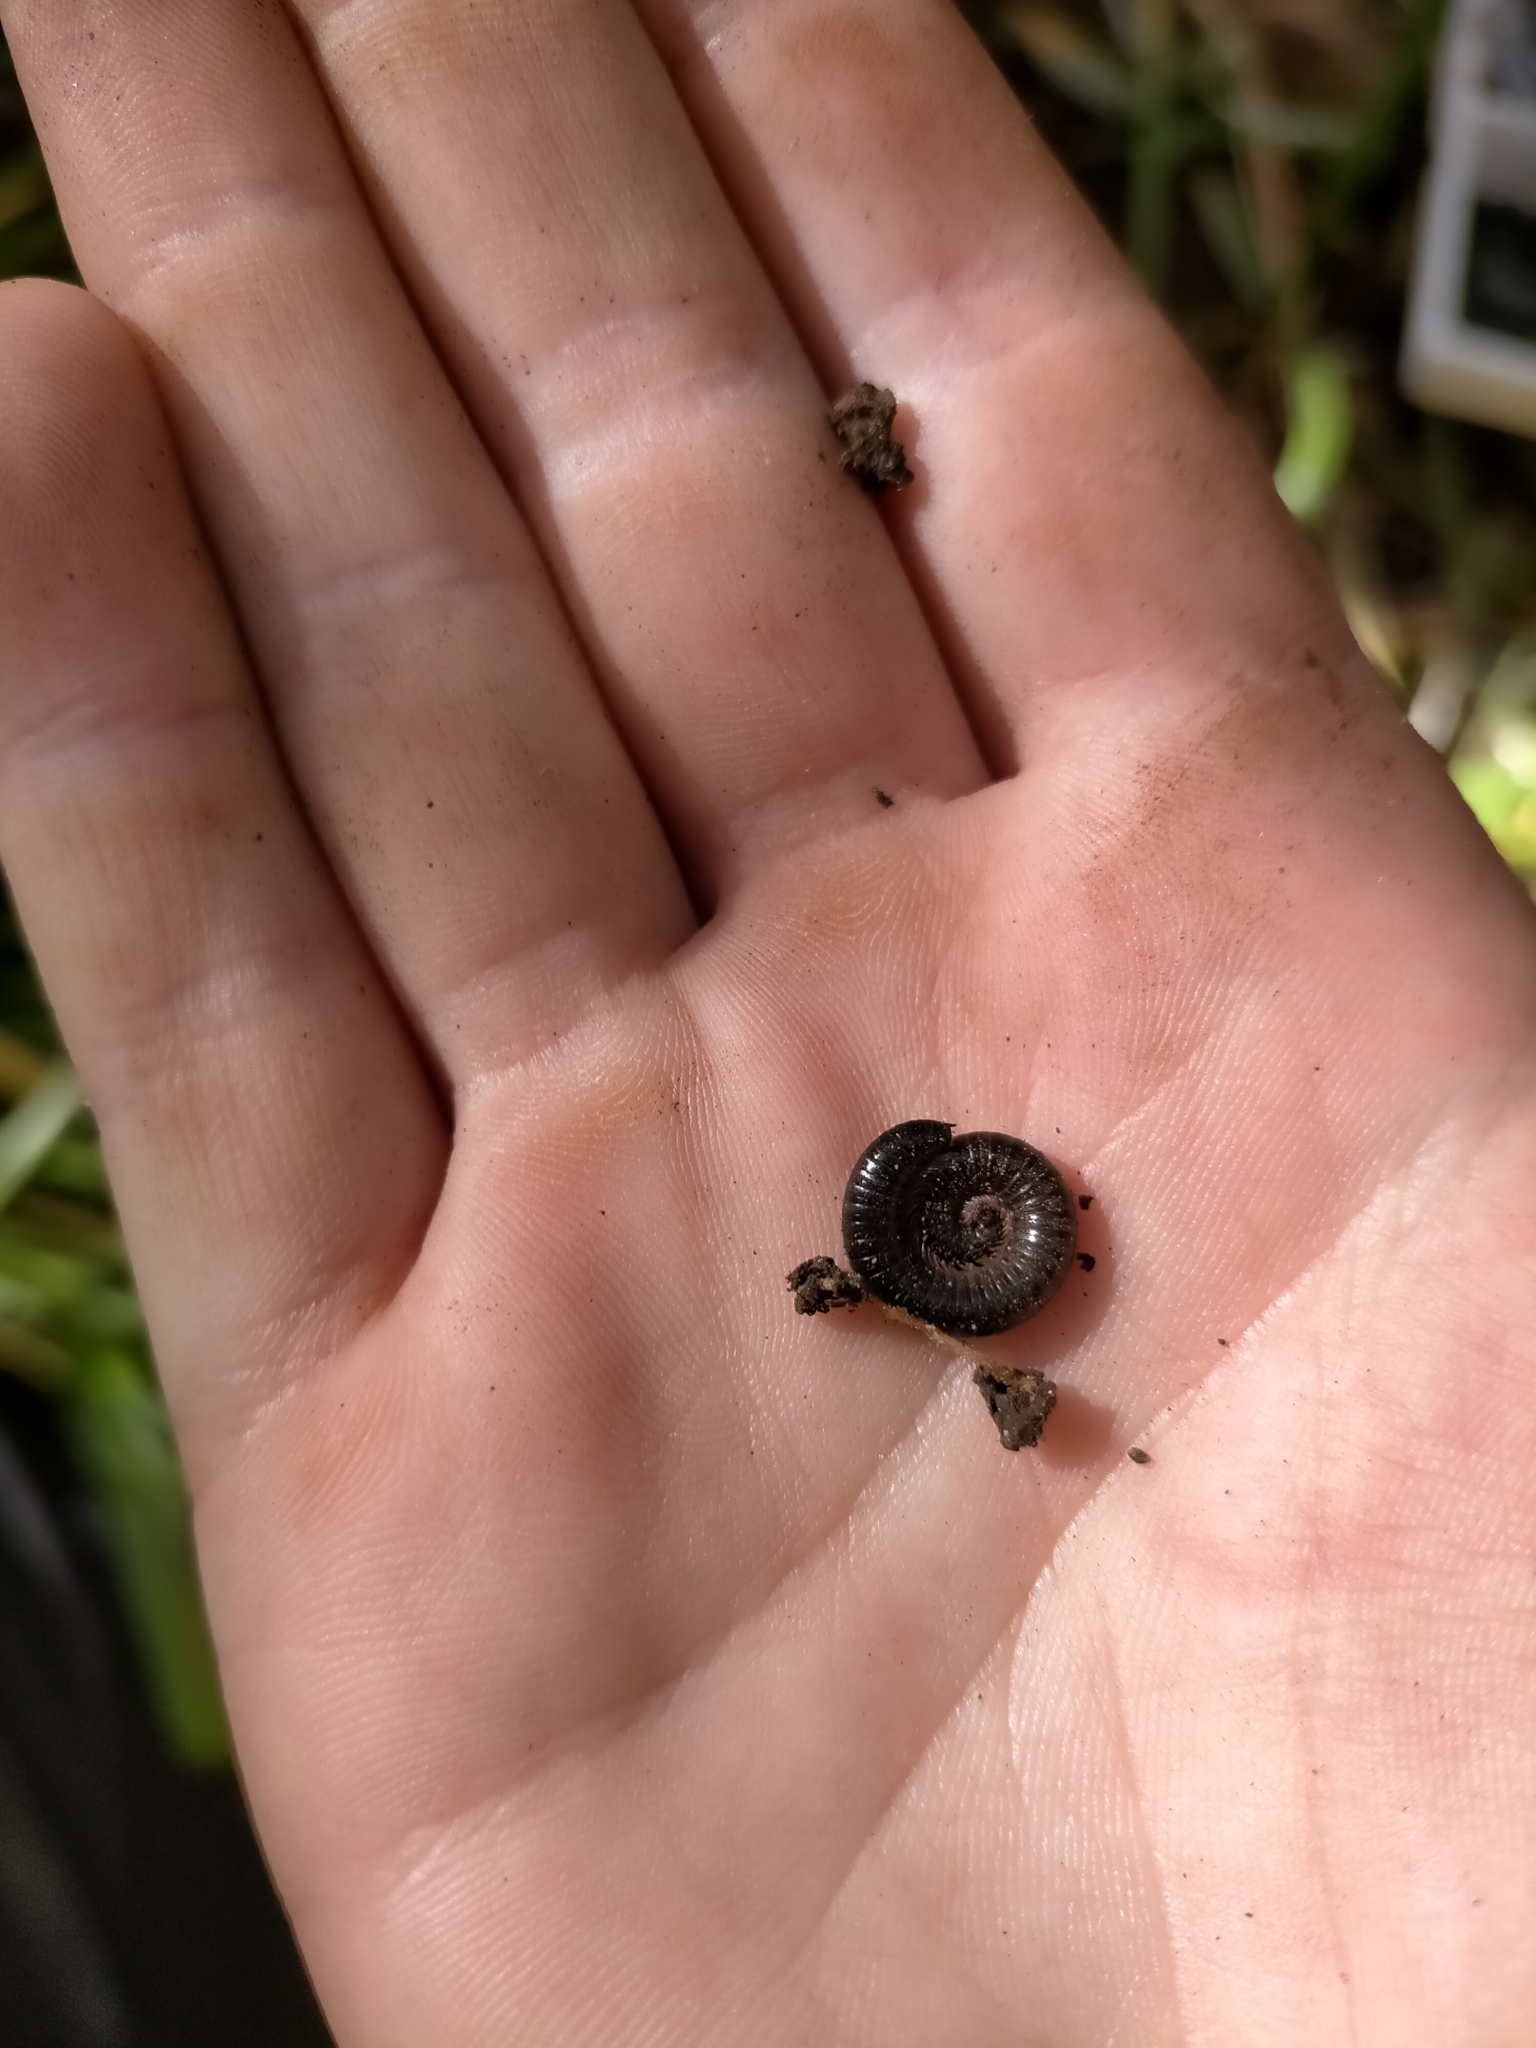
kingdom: Animalia
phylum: Arthropoda
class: Diplopoda
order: Julida
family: Julidae
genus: Ommatoiulus
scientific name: Ommatoiulus moreleti
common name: Portuguese millipede
